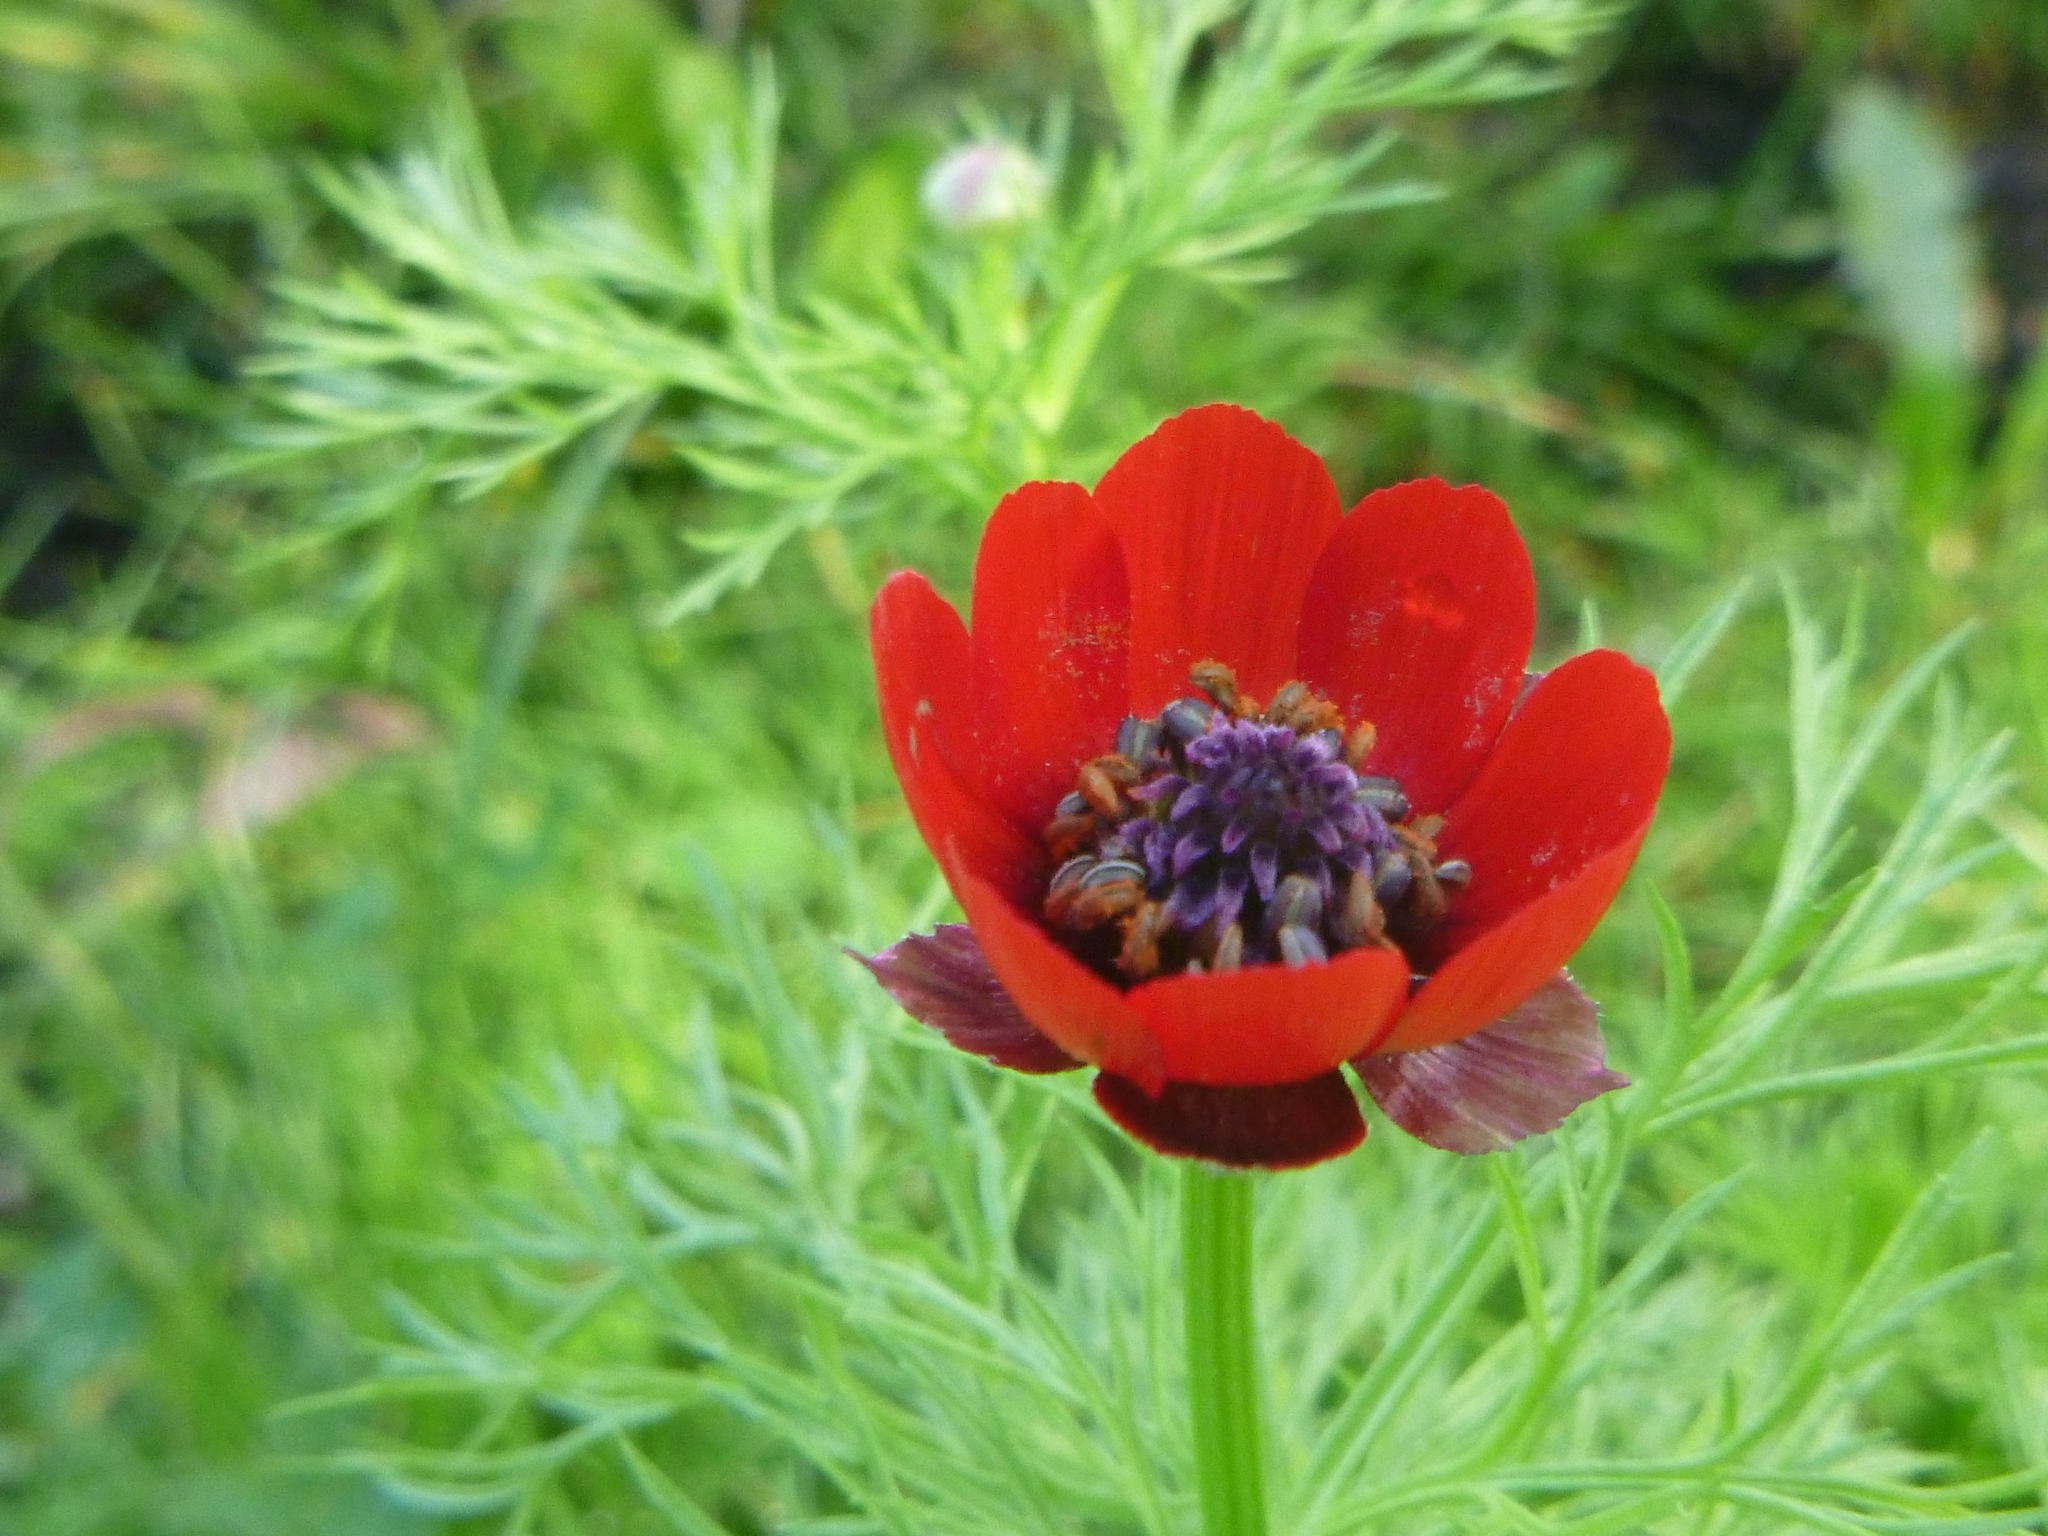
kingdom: Plantae
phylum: Tracheophyta
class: Magnoliopsida
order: Ranunculales
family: Ranunculaceae
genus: Adonis
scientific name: Adonis aestivalis
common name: Summer pheasant's-eye
